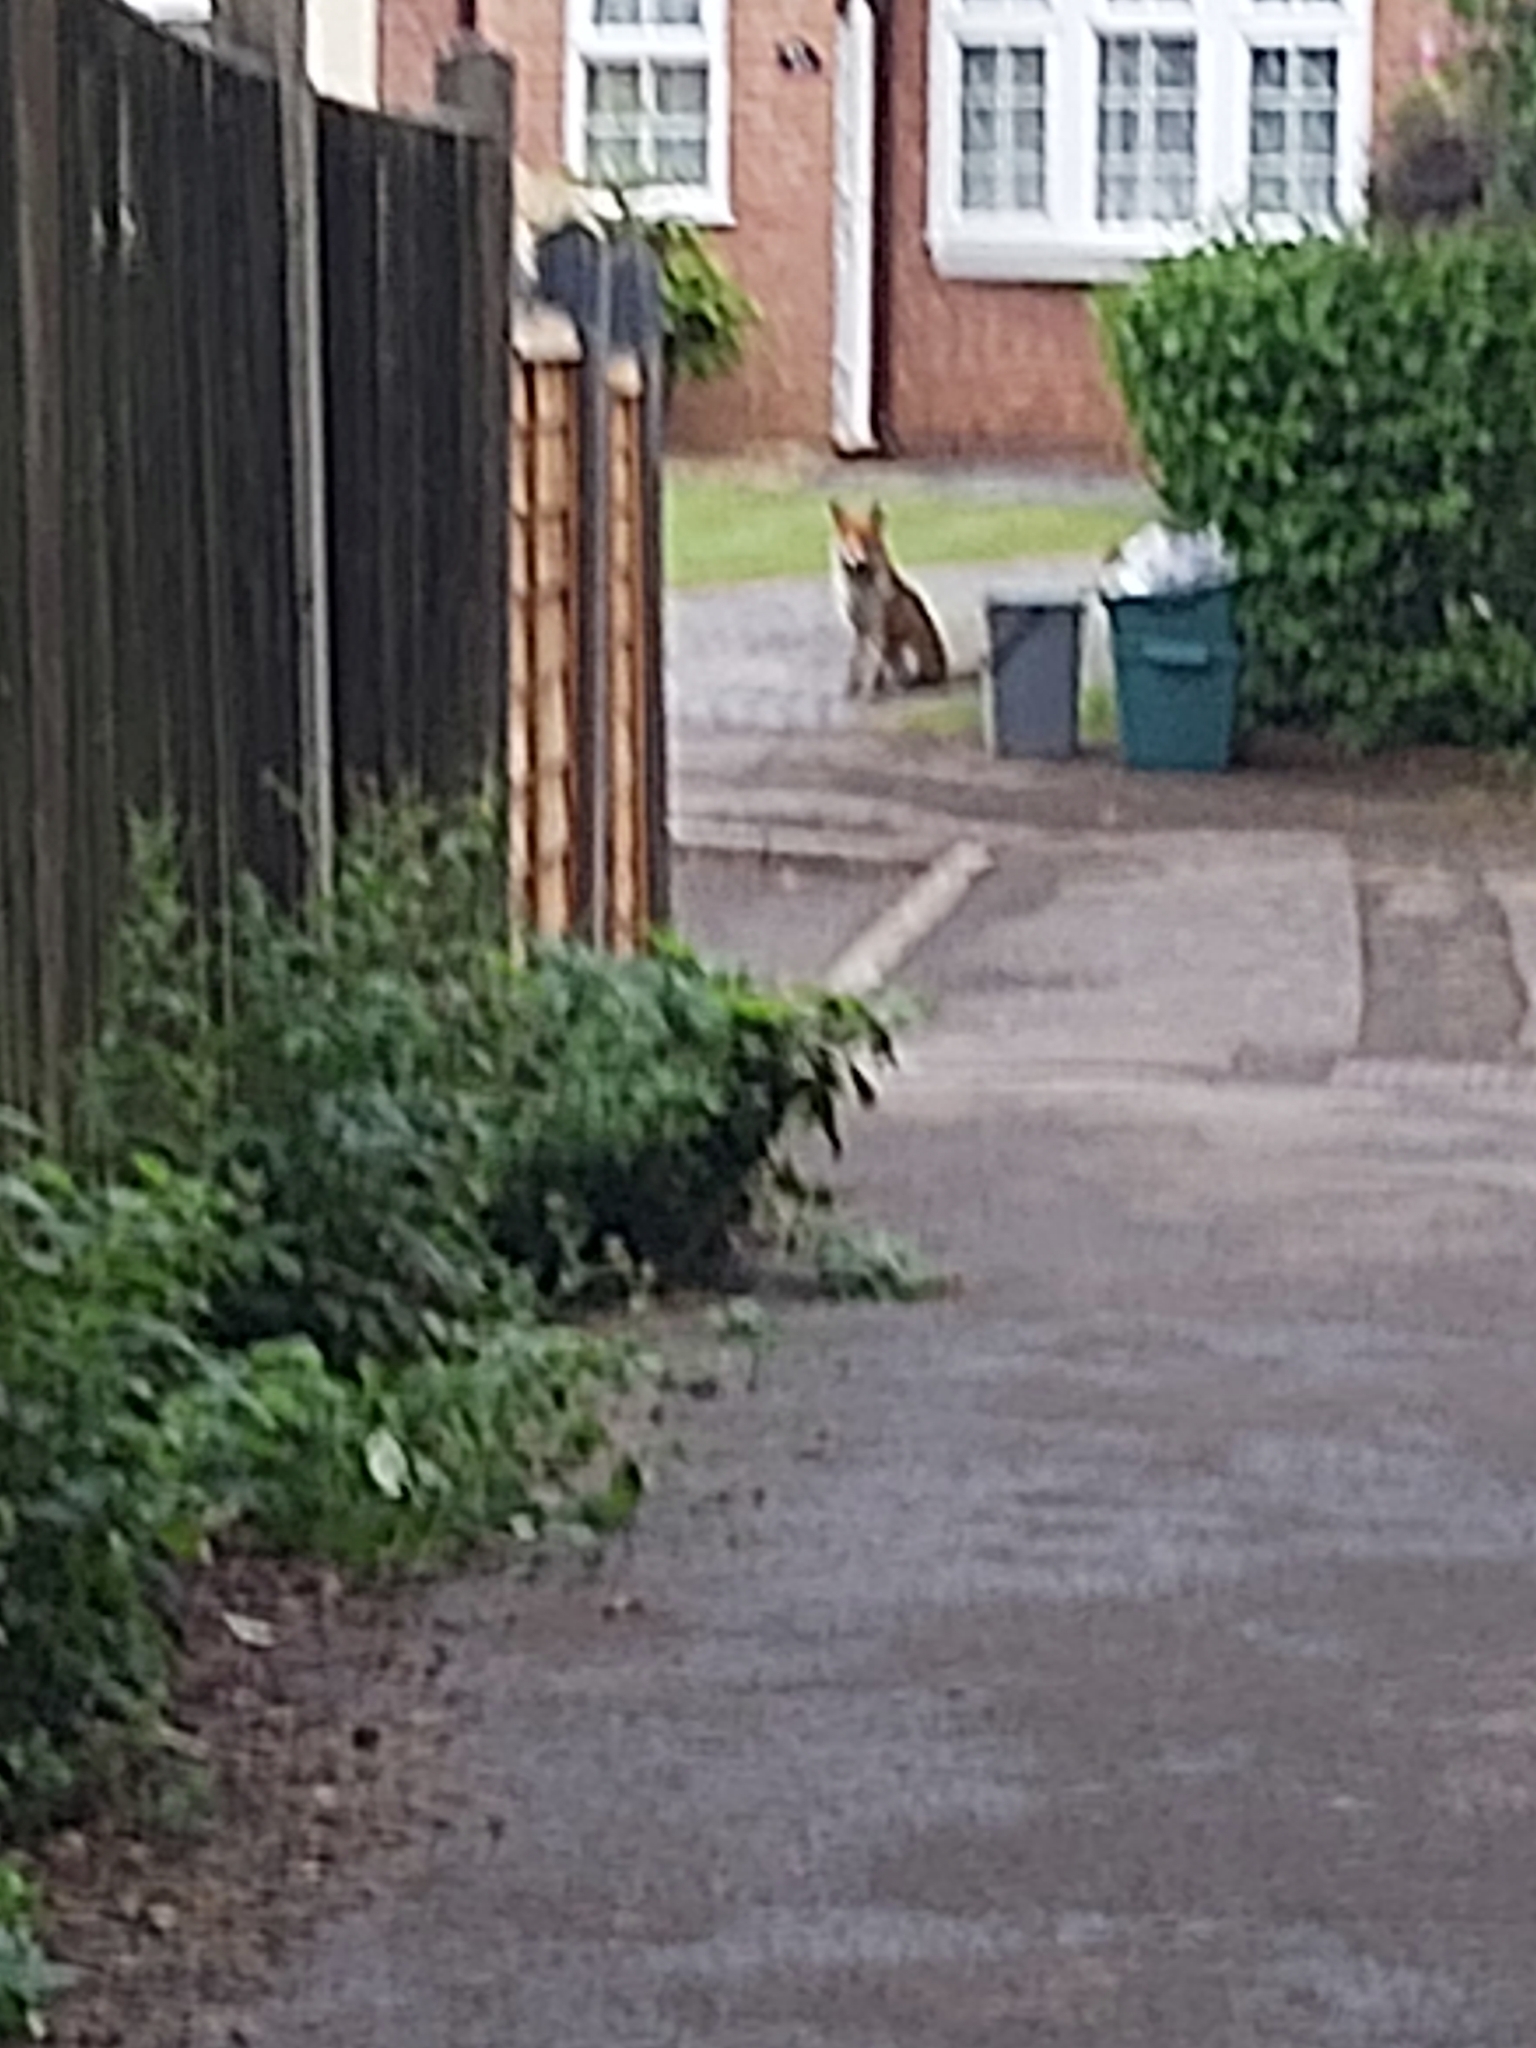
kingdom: Animalia
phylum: Chordata
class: Mammalia
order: Carnivora
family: Canidae
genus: Vulpes
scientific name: Vulpes vulpes
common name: Red fox
